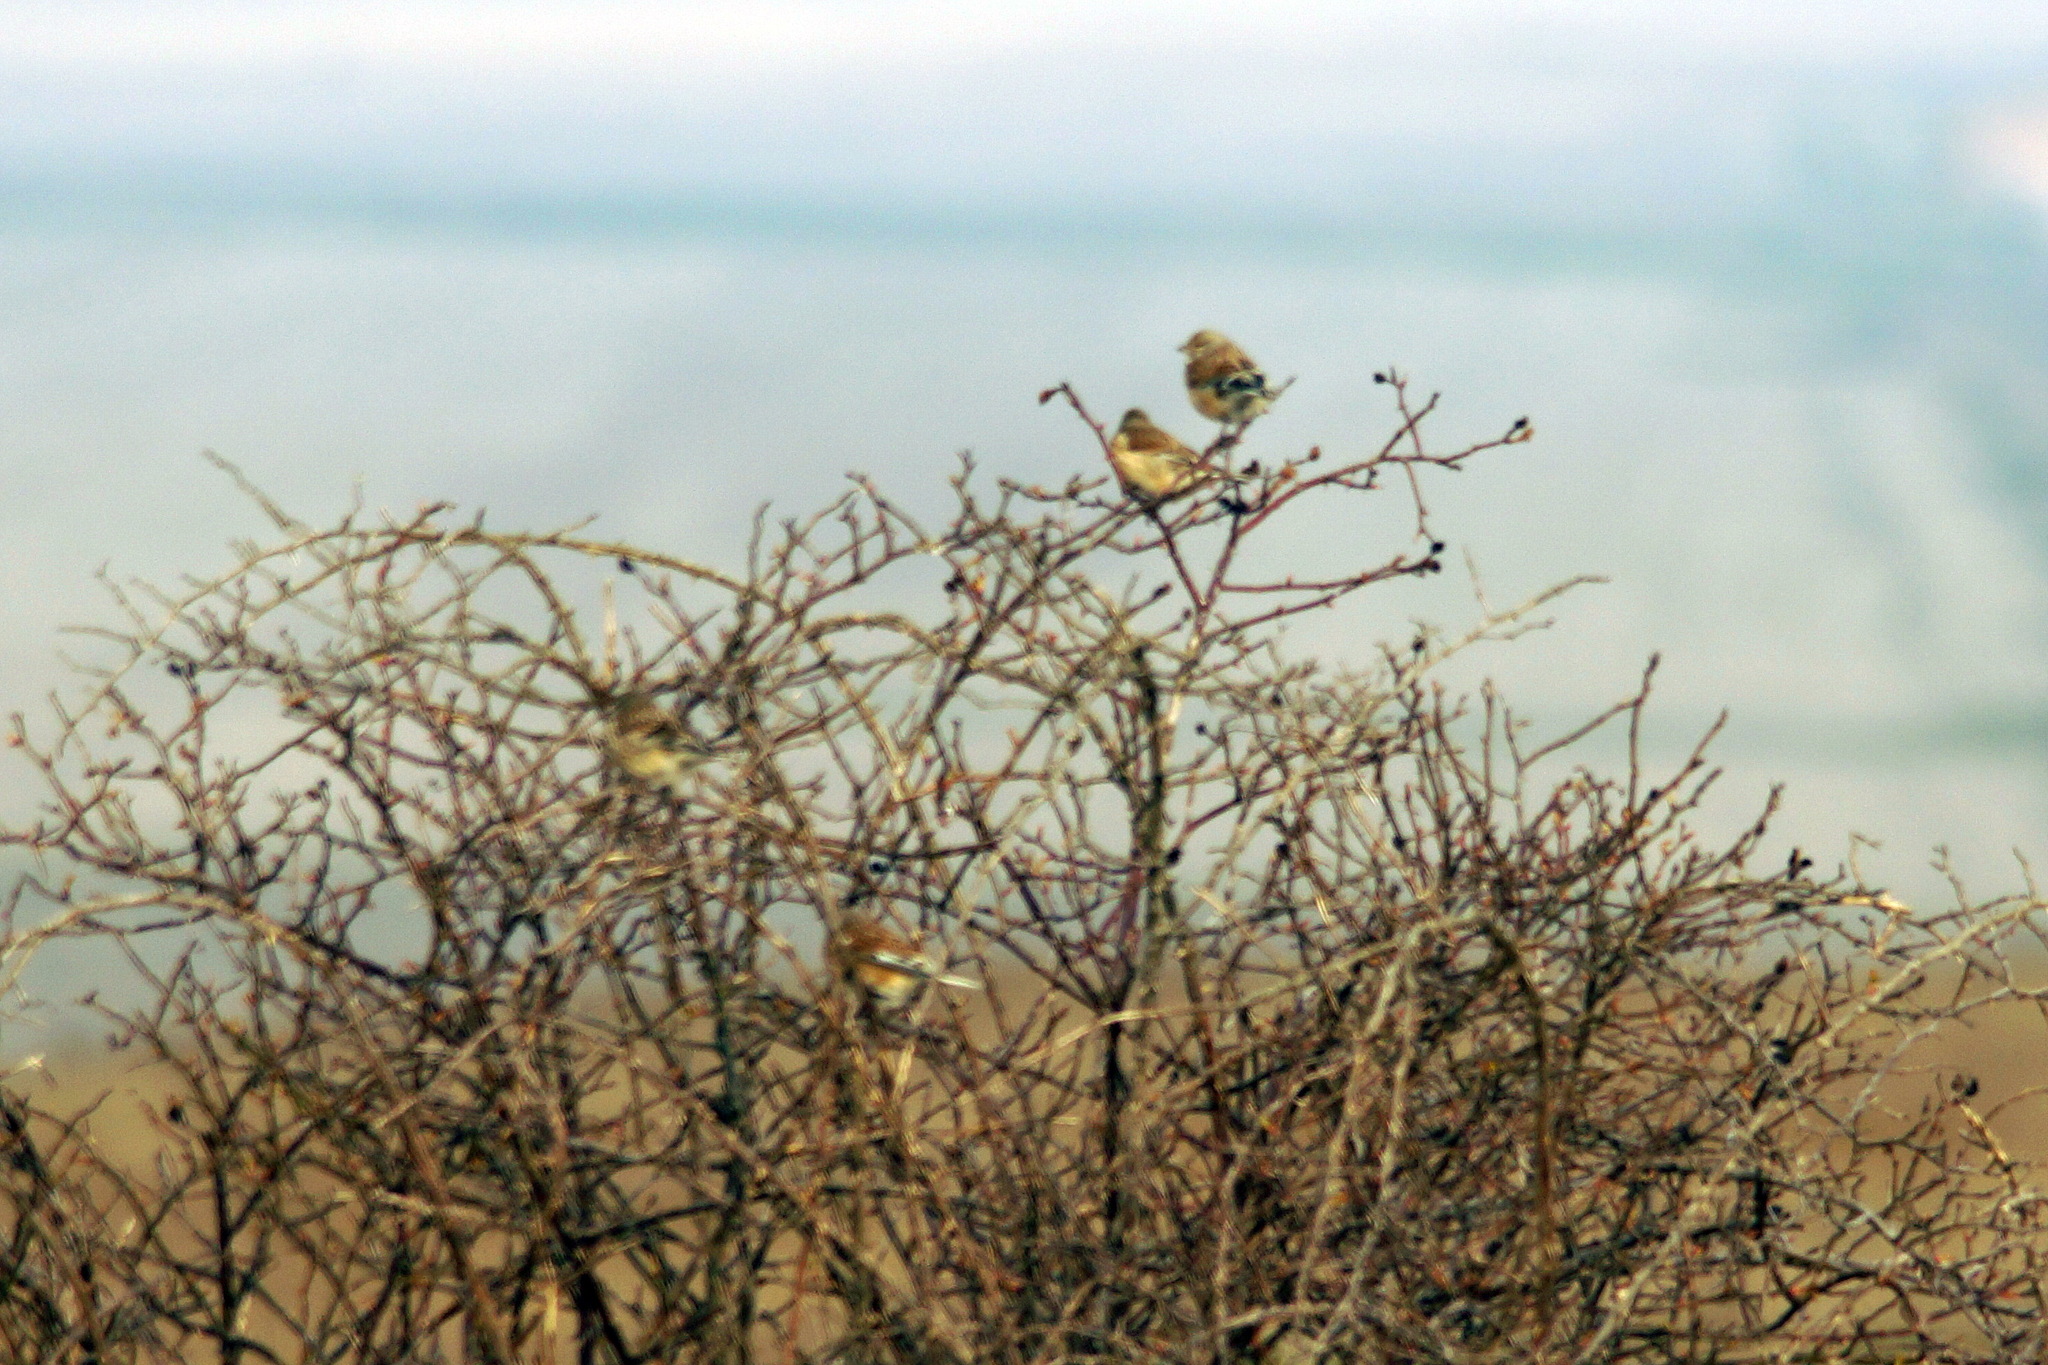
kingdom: Animalia
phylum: Chordata
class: Aves
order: Passeriformes
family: Fringillidae
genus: Linaria
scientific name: Linaria cannabina
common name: Common linnet
